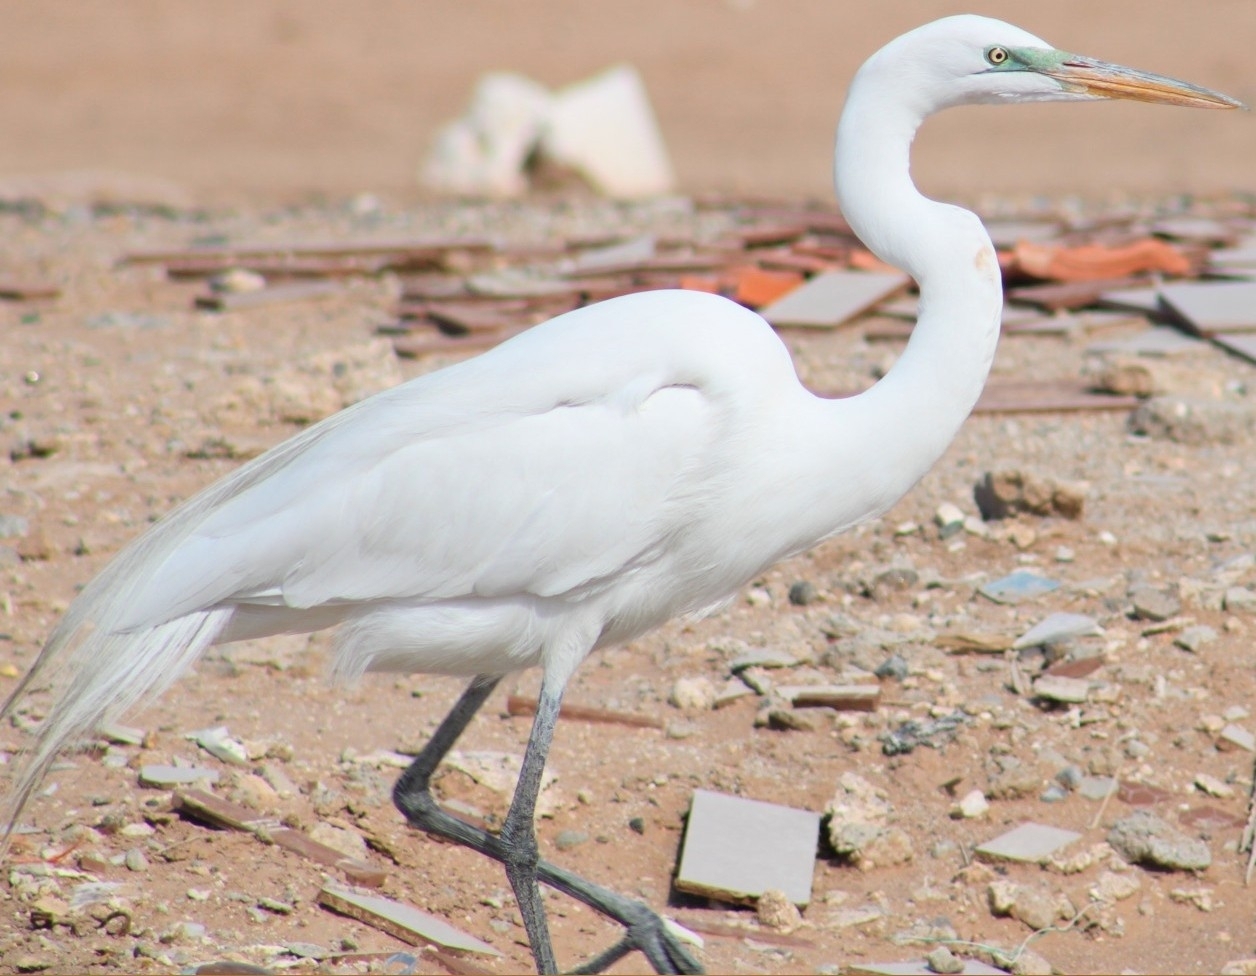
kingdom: Animalia
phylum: Chordata
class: Aves
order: Pelecaniformes
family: Ardeidae
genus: Ardea
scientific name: Ardea alba
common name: Great egret
